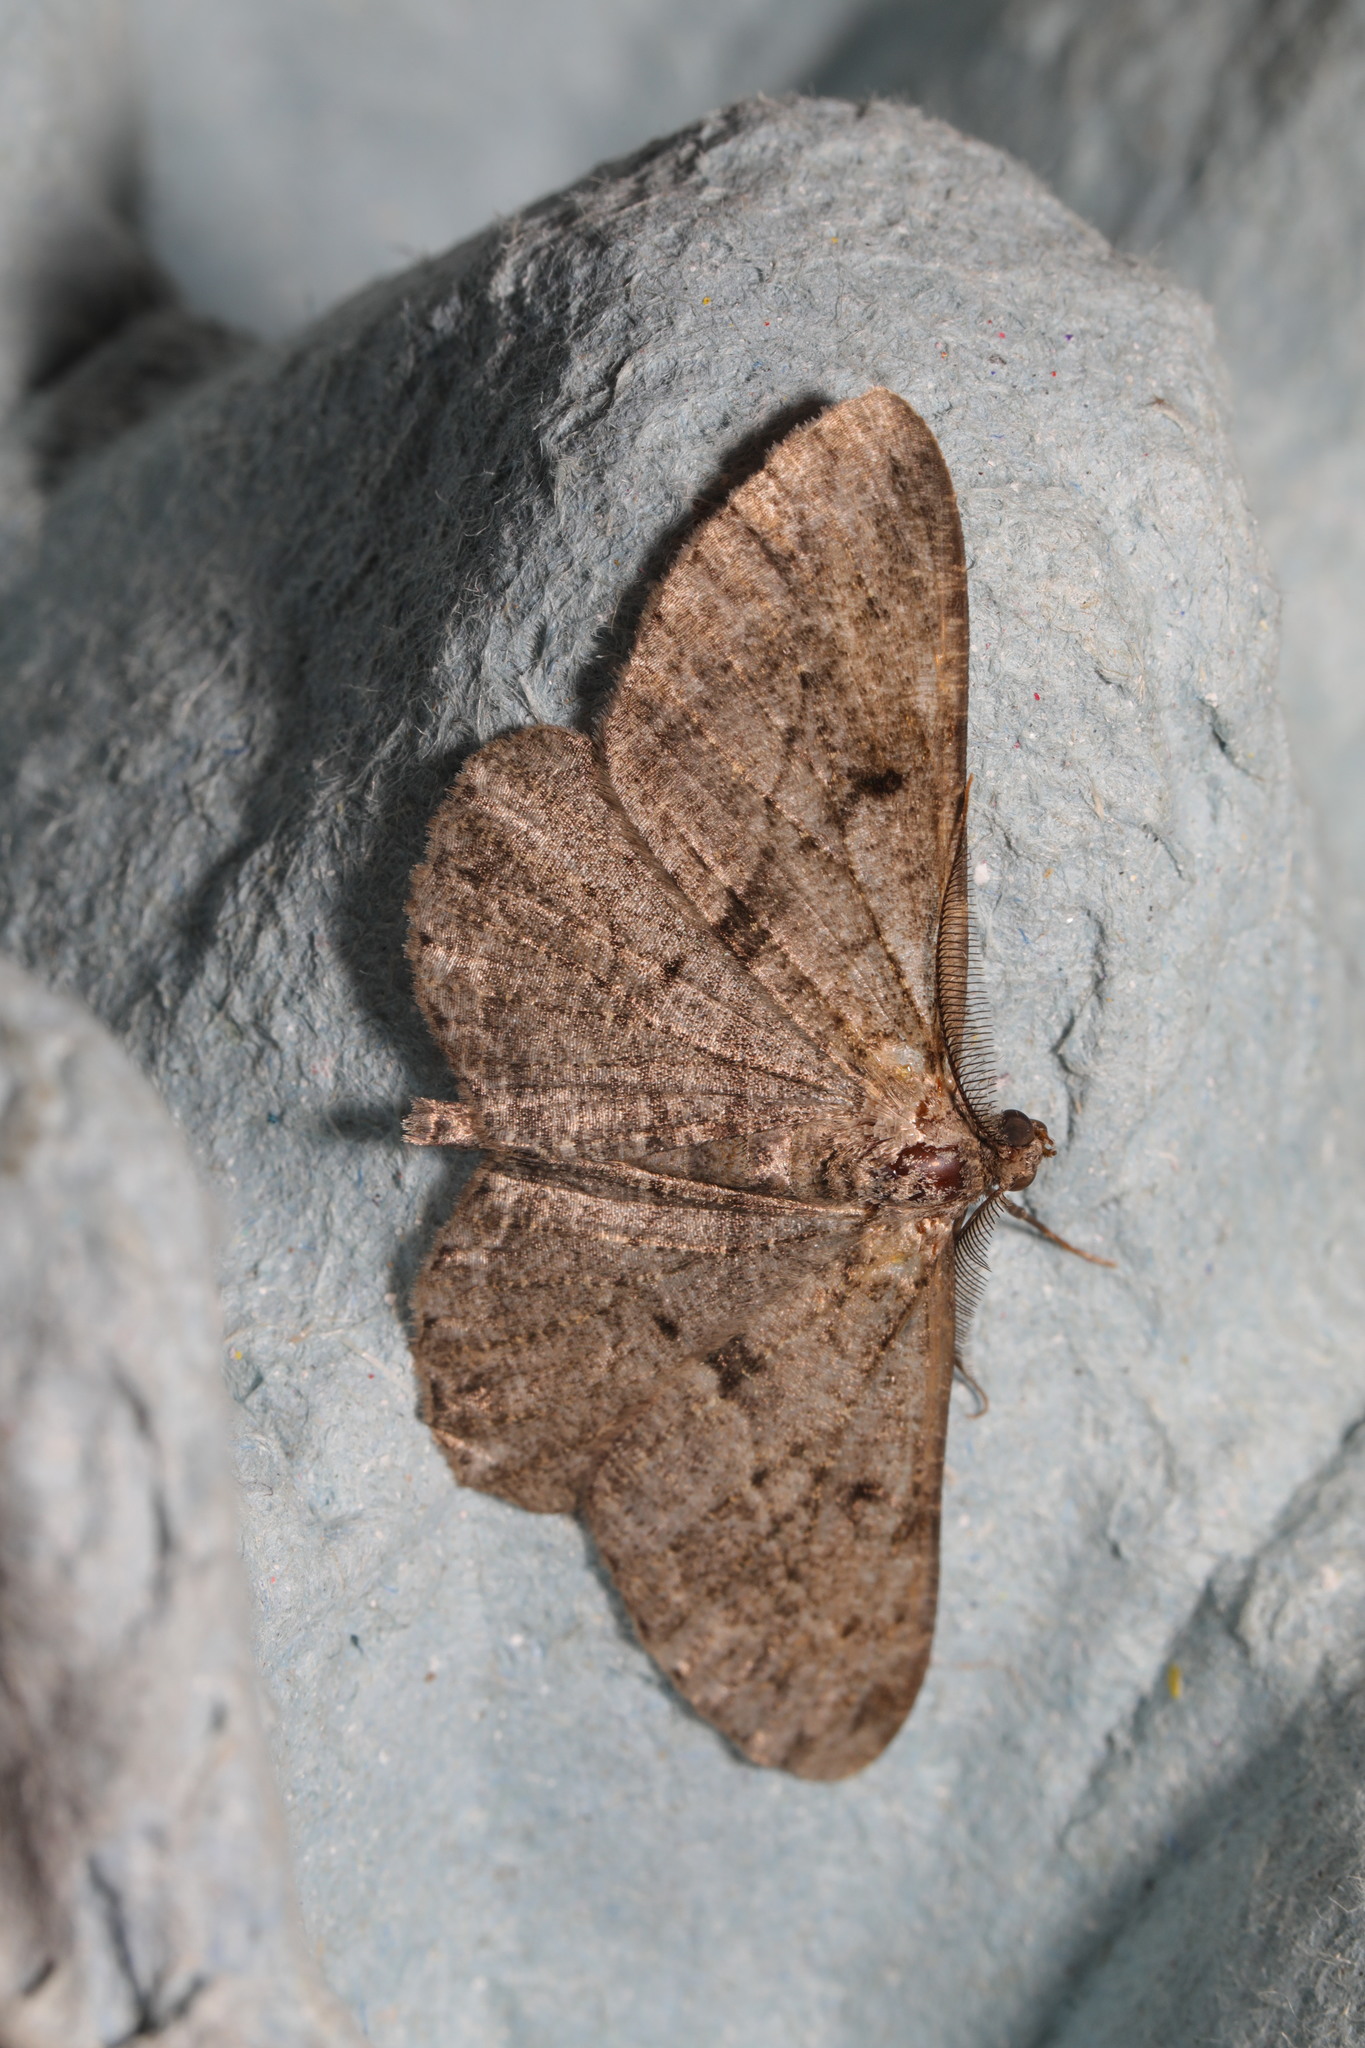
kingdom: Animalia
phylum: Arthropoda
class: Insecta
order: Lepidoptera
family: Geometridae
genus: Peribatodes
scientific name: Peribatodes rhomboidaria
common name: Willow beauty
